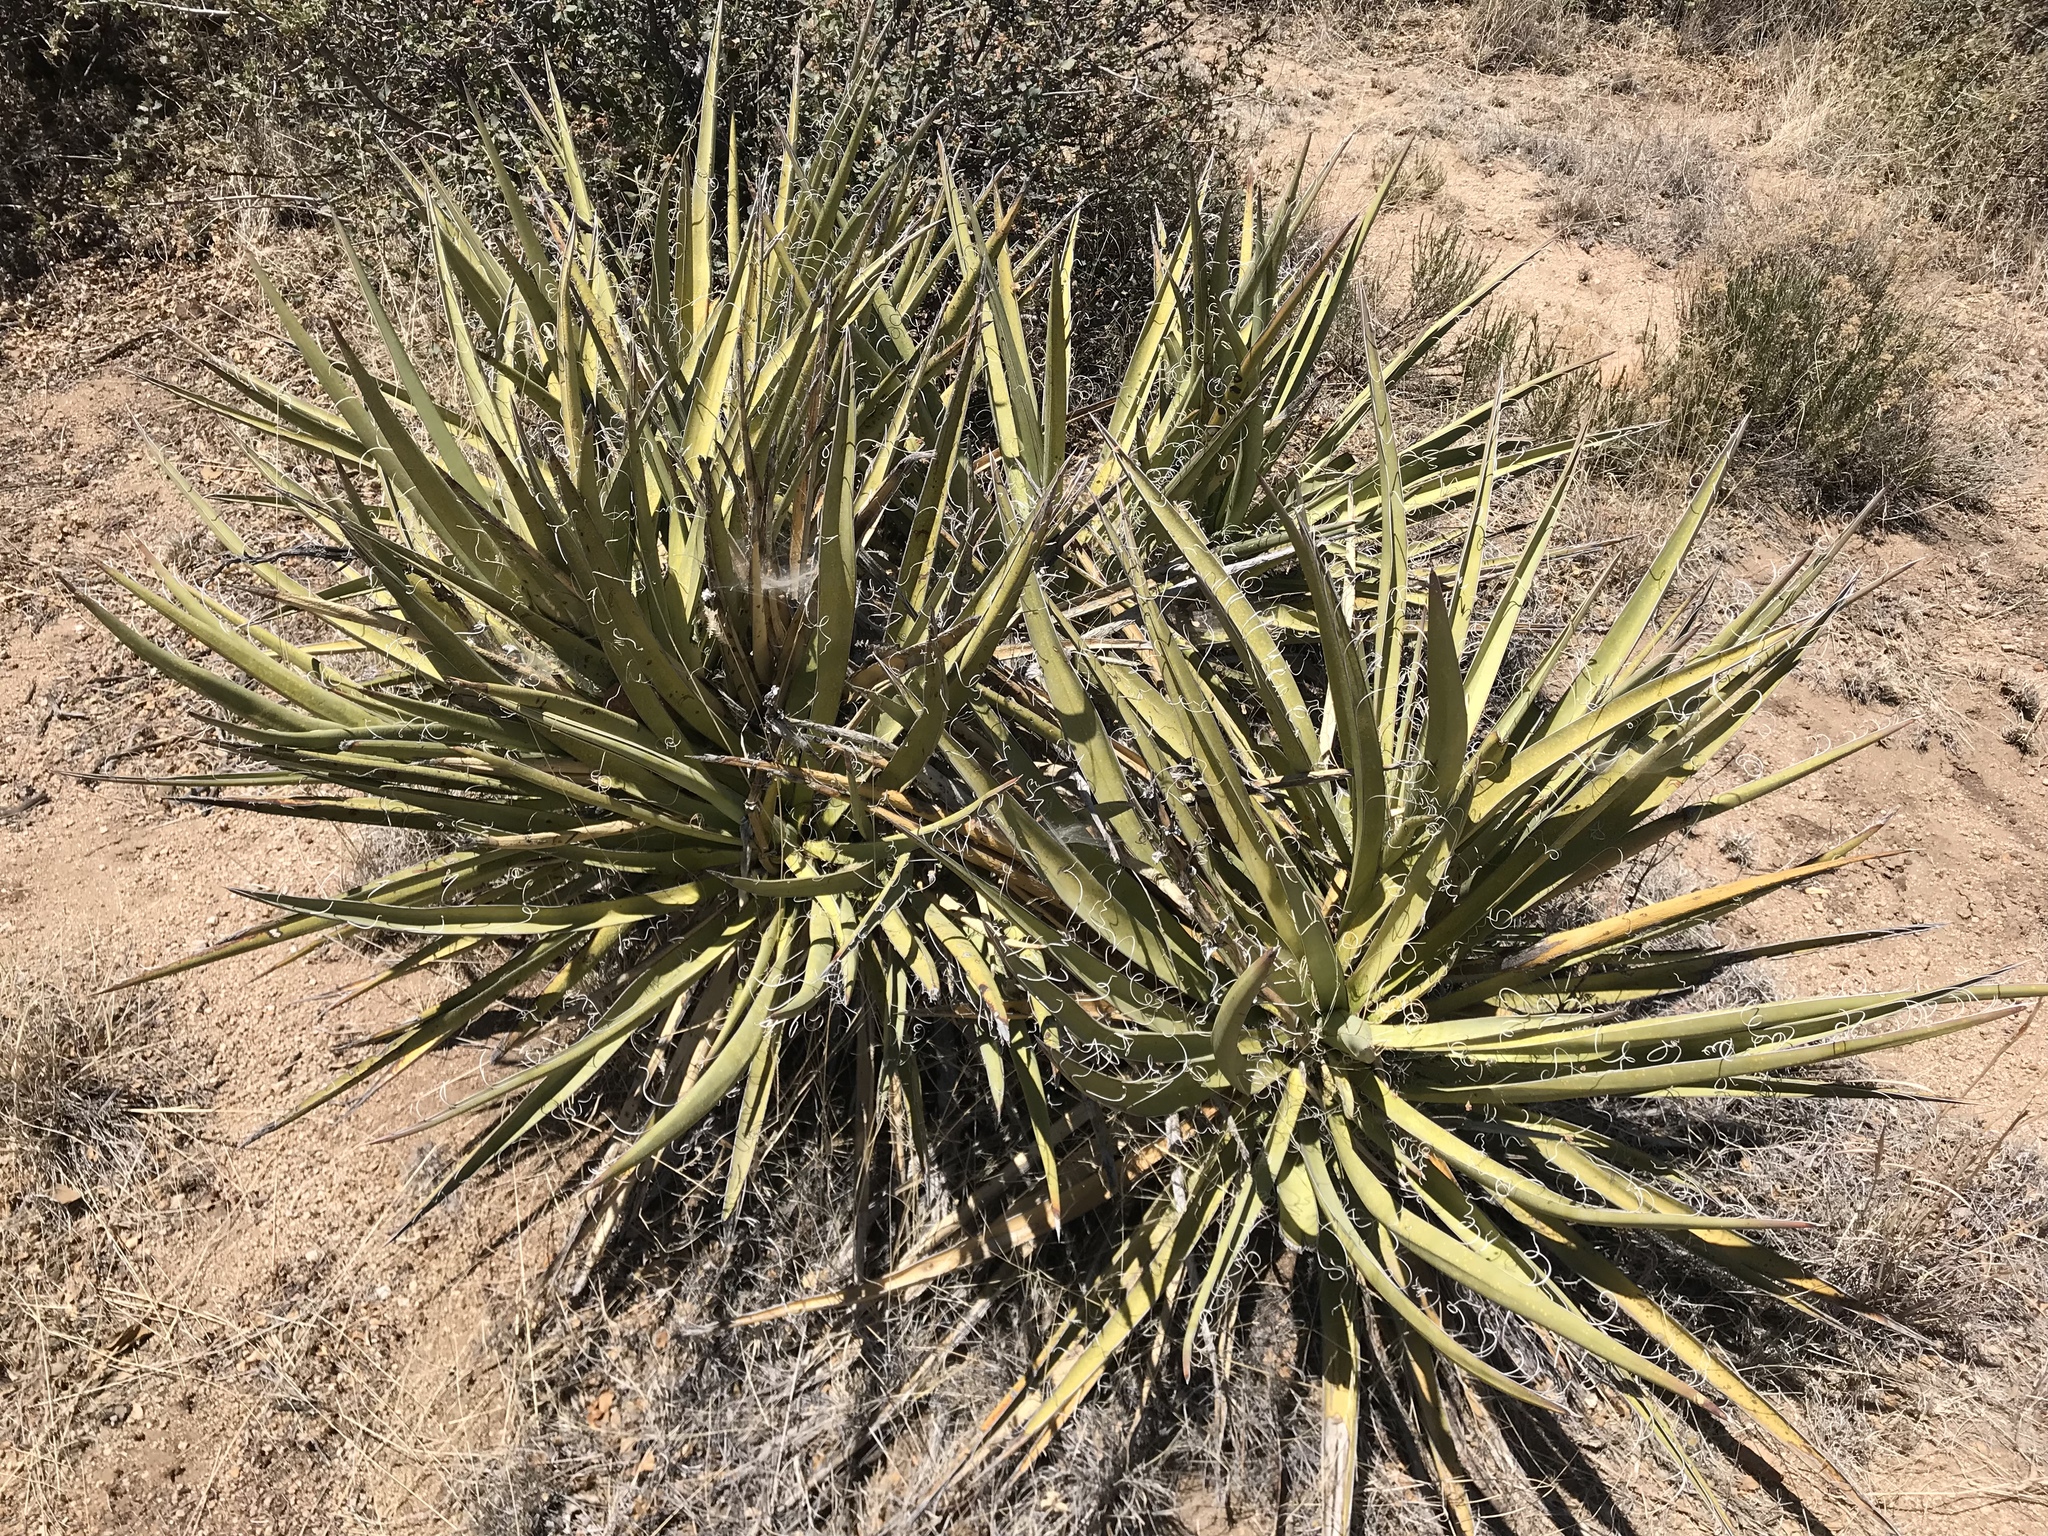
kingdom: Plantae
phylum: Tracheophyta
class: Liliopsida
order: Asparagales
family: Asparagaceae
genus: Yucca
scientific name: Yucca baccata
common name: Banana yucca
